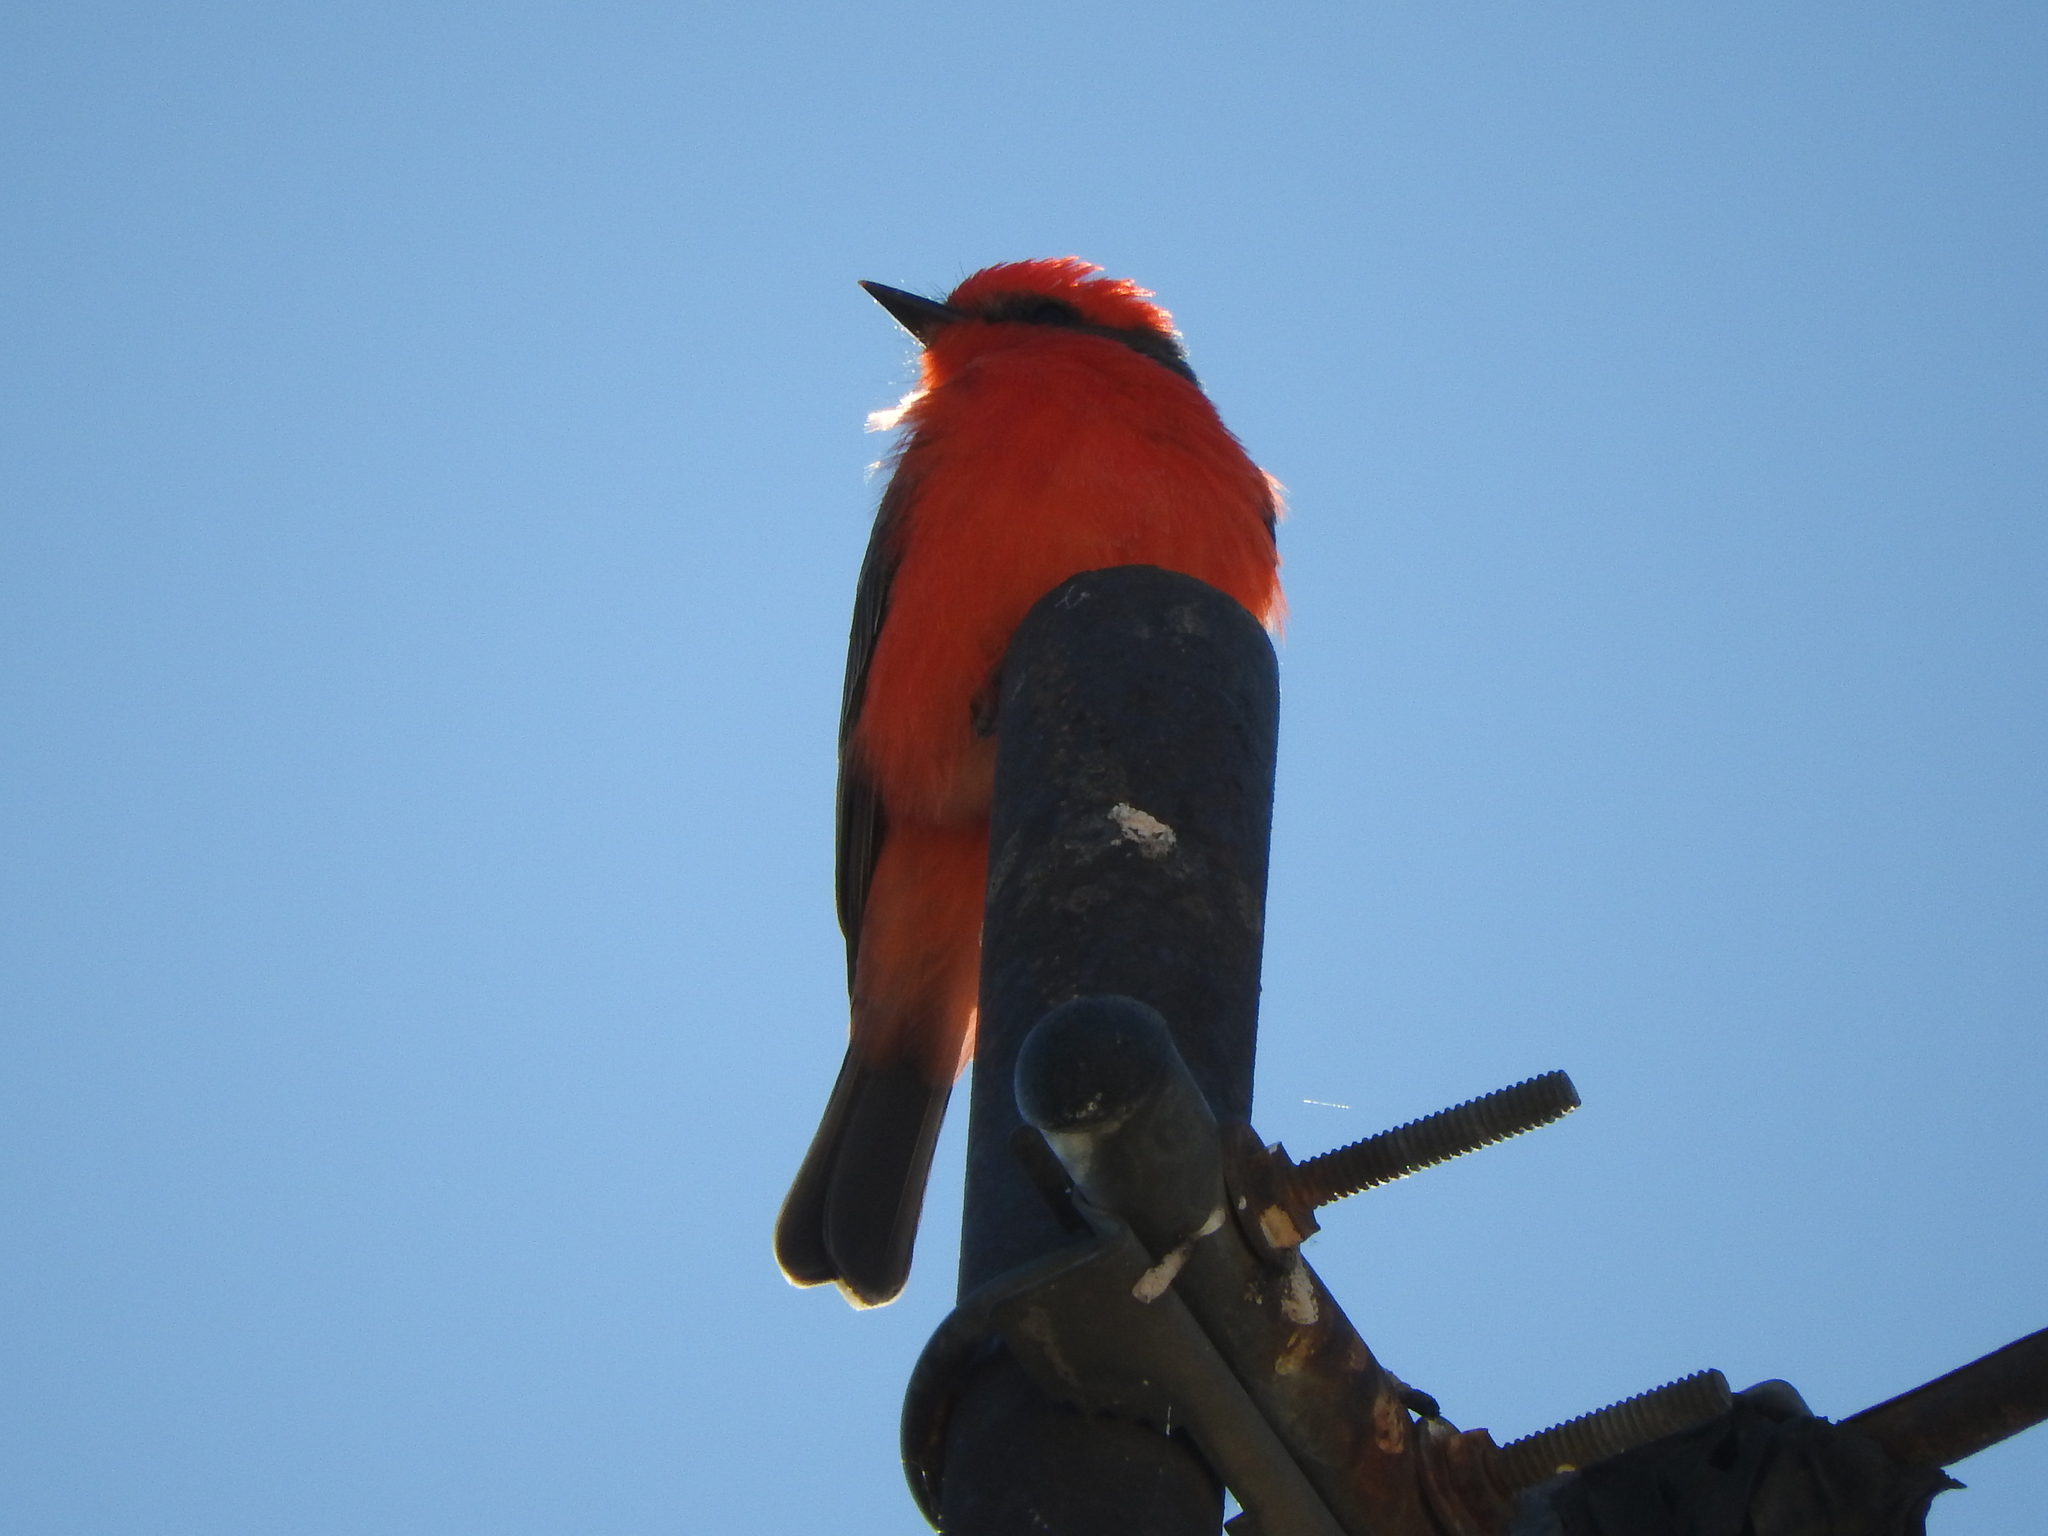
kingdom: Animalia
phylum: Chordata
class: Aves
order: Passeriformes
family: Tyrannidae
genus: Pyrocephalus
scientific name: Pyrocephalus rubinus
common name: Vermilion flycatcher
